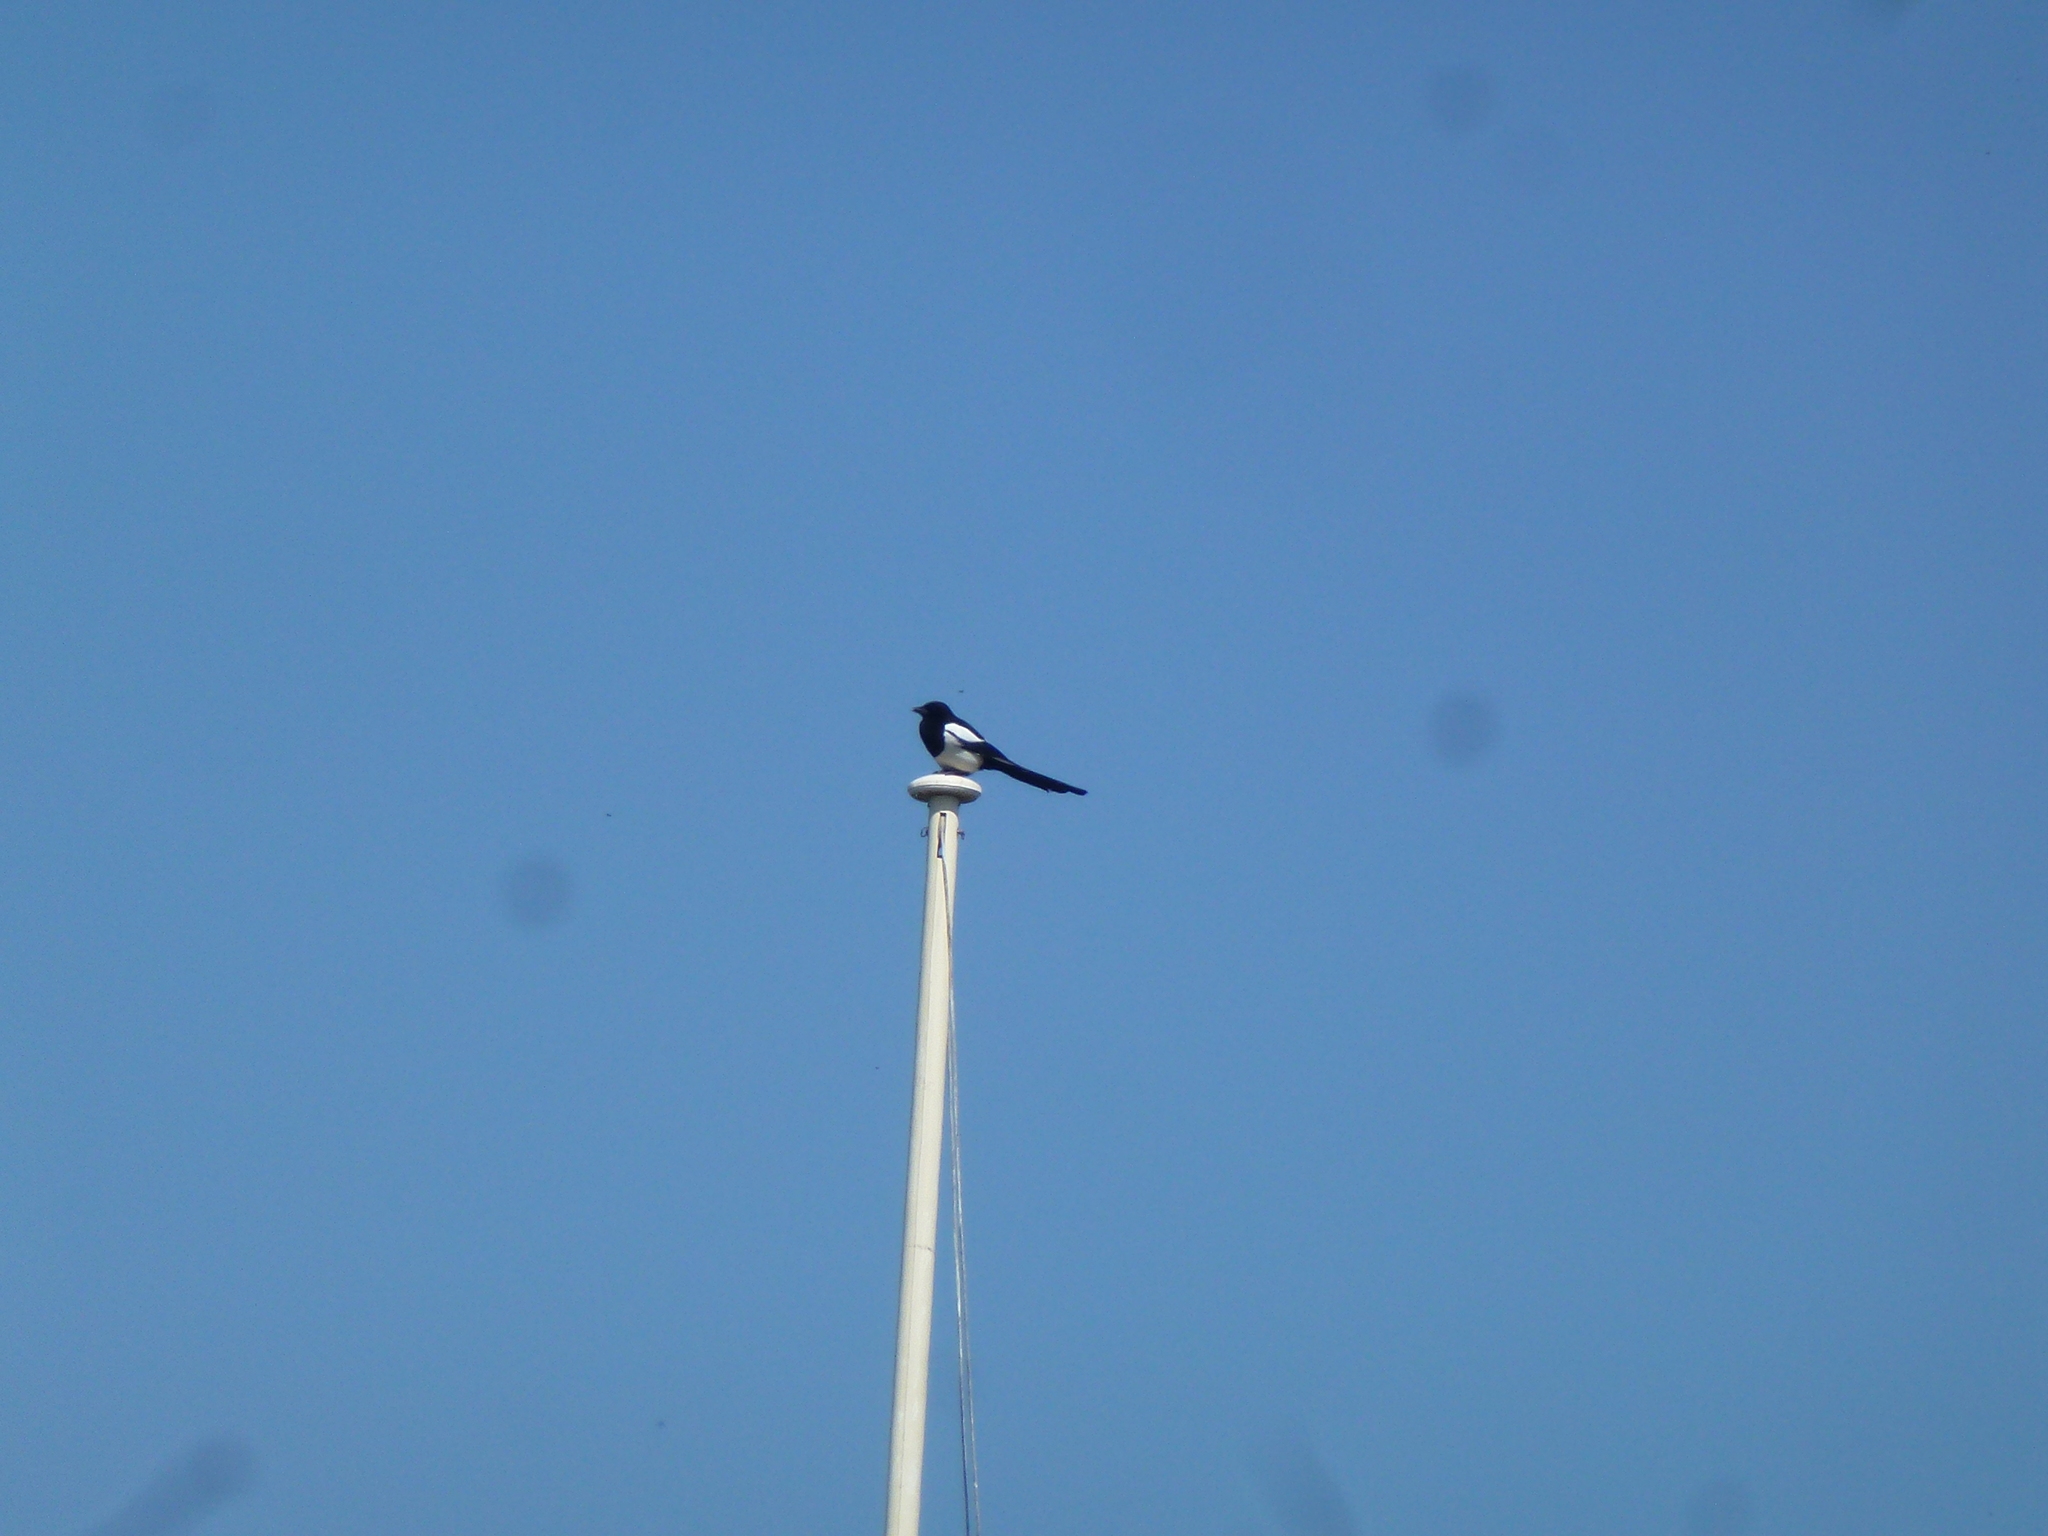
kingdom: Animalia
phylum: Chordata
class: Aves
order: Passeriformes
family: Corvidae
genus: Pica
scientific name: Pica pica
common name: Eurasian magpie
